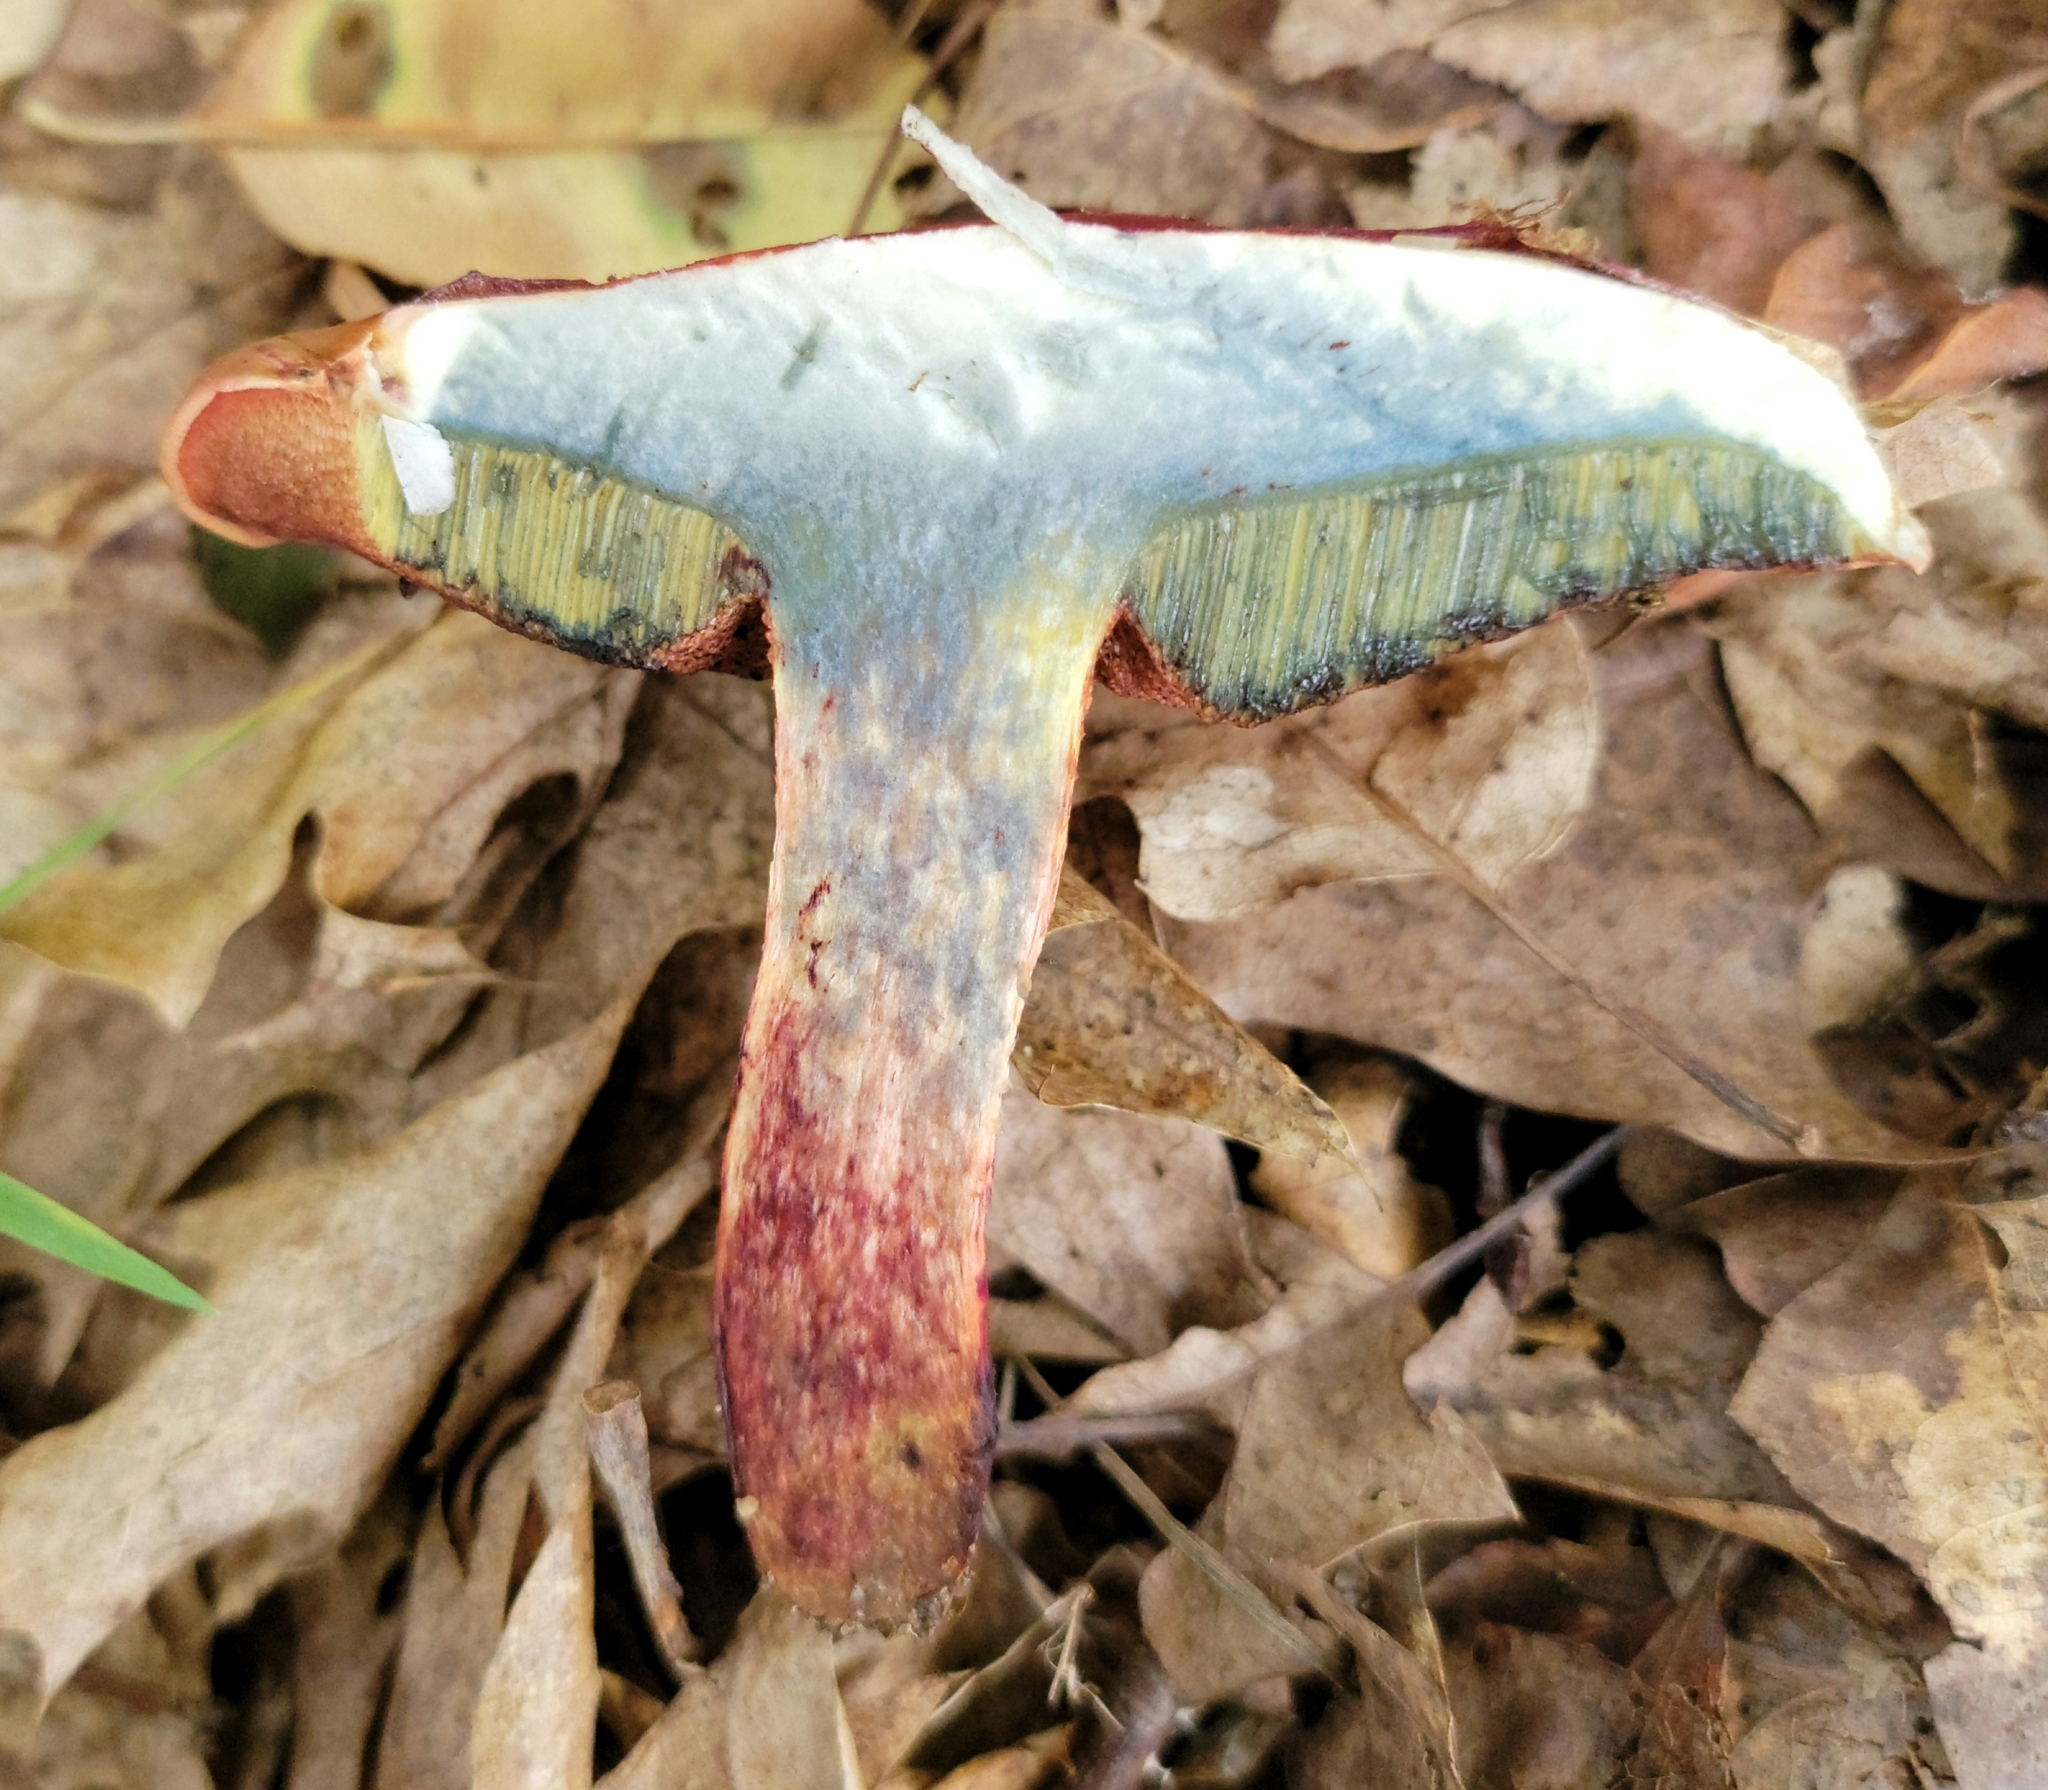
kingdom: Fungi
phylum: Basidiomycota
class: Agaricomycetes
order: Boletales
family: Boletaceae
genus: Butyriboletus
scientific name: Butyriboletus frostii
